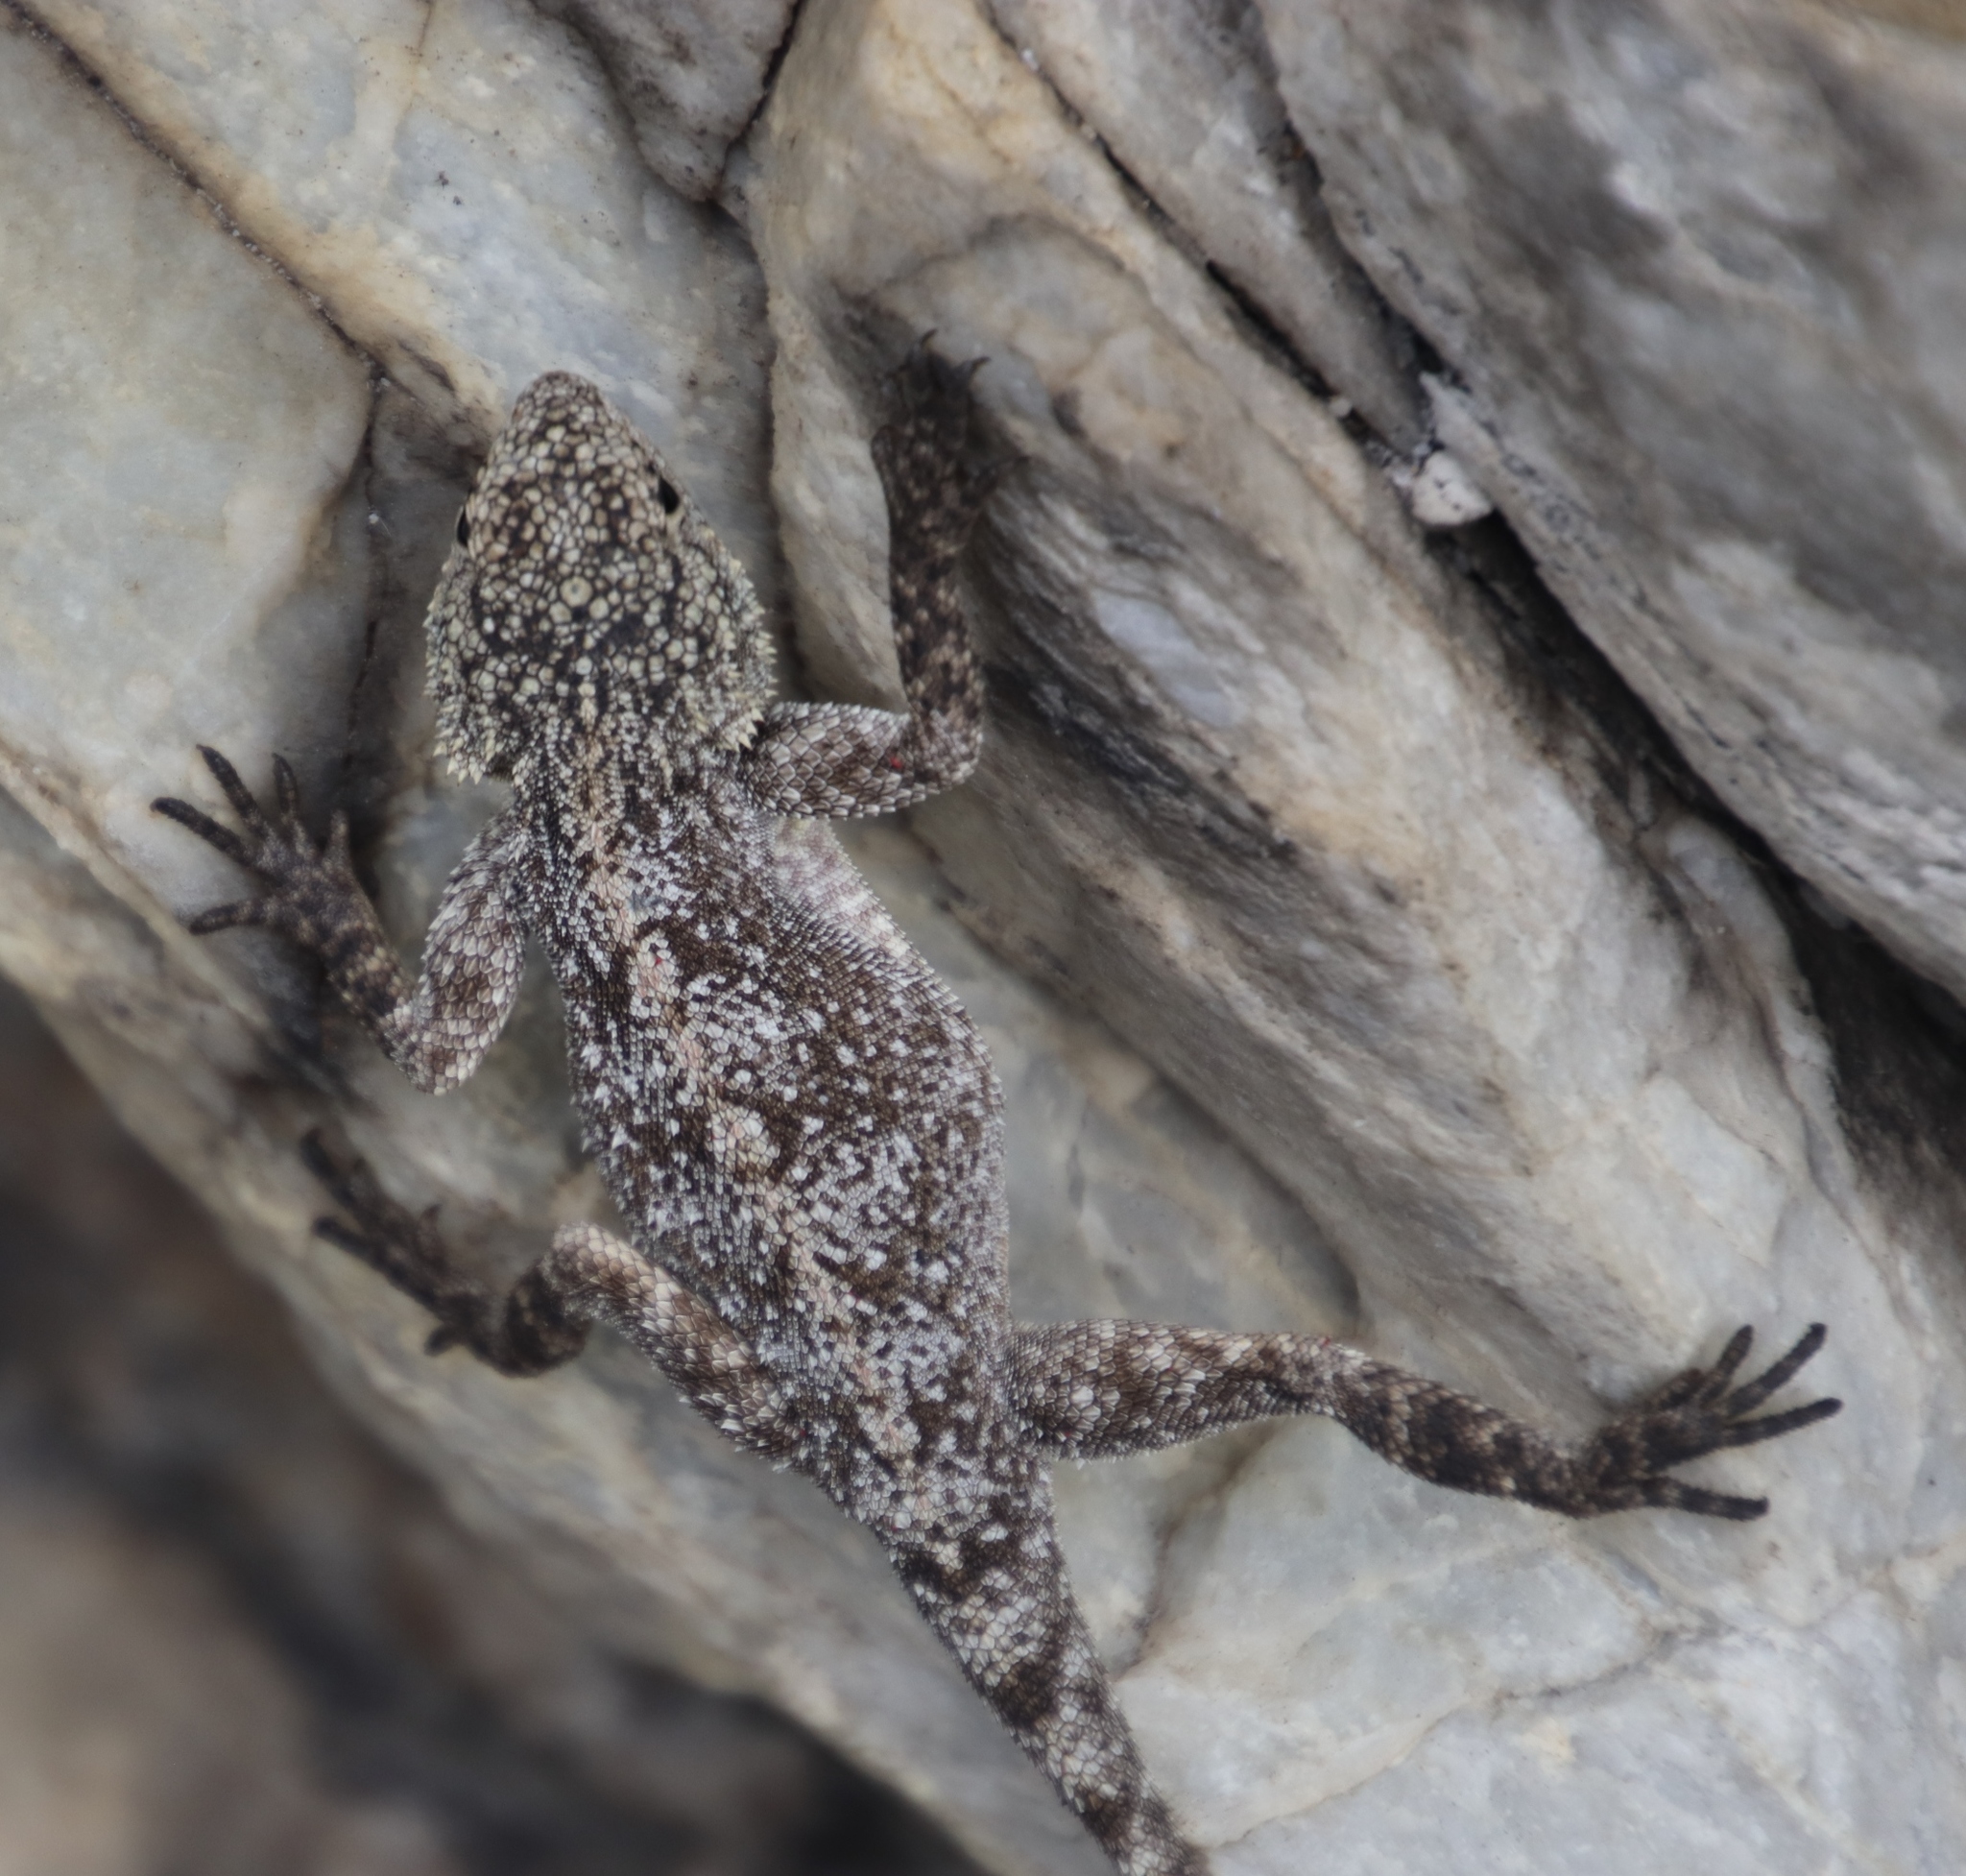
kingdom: Animalia
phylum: Chordata
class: Squamata
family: Agamidae
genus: Agama
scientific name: Agama atra
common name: Southern african rock agama
